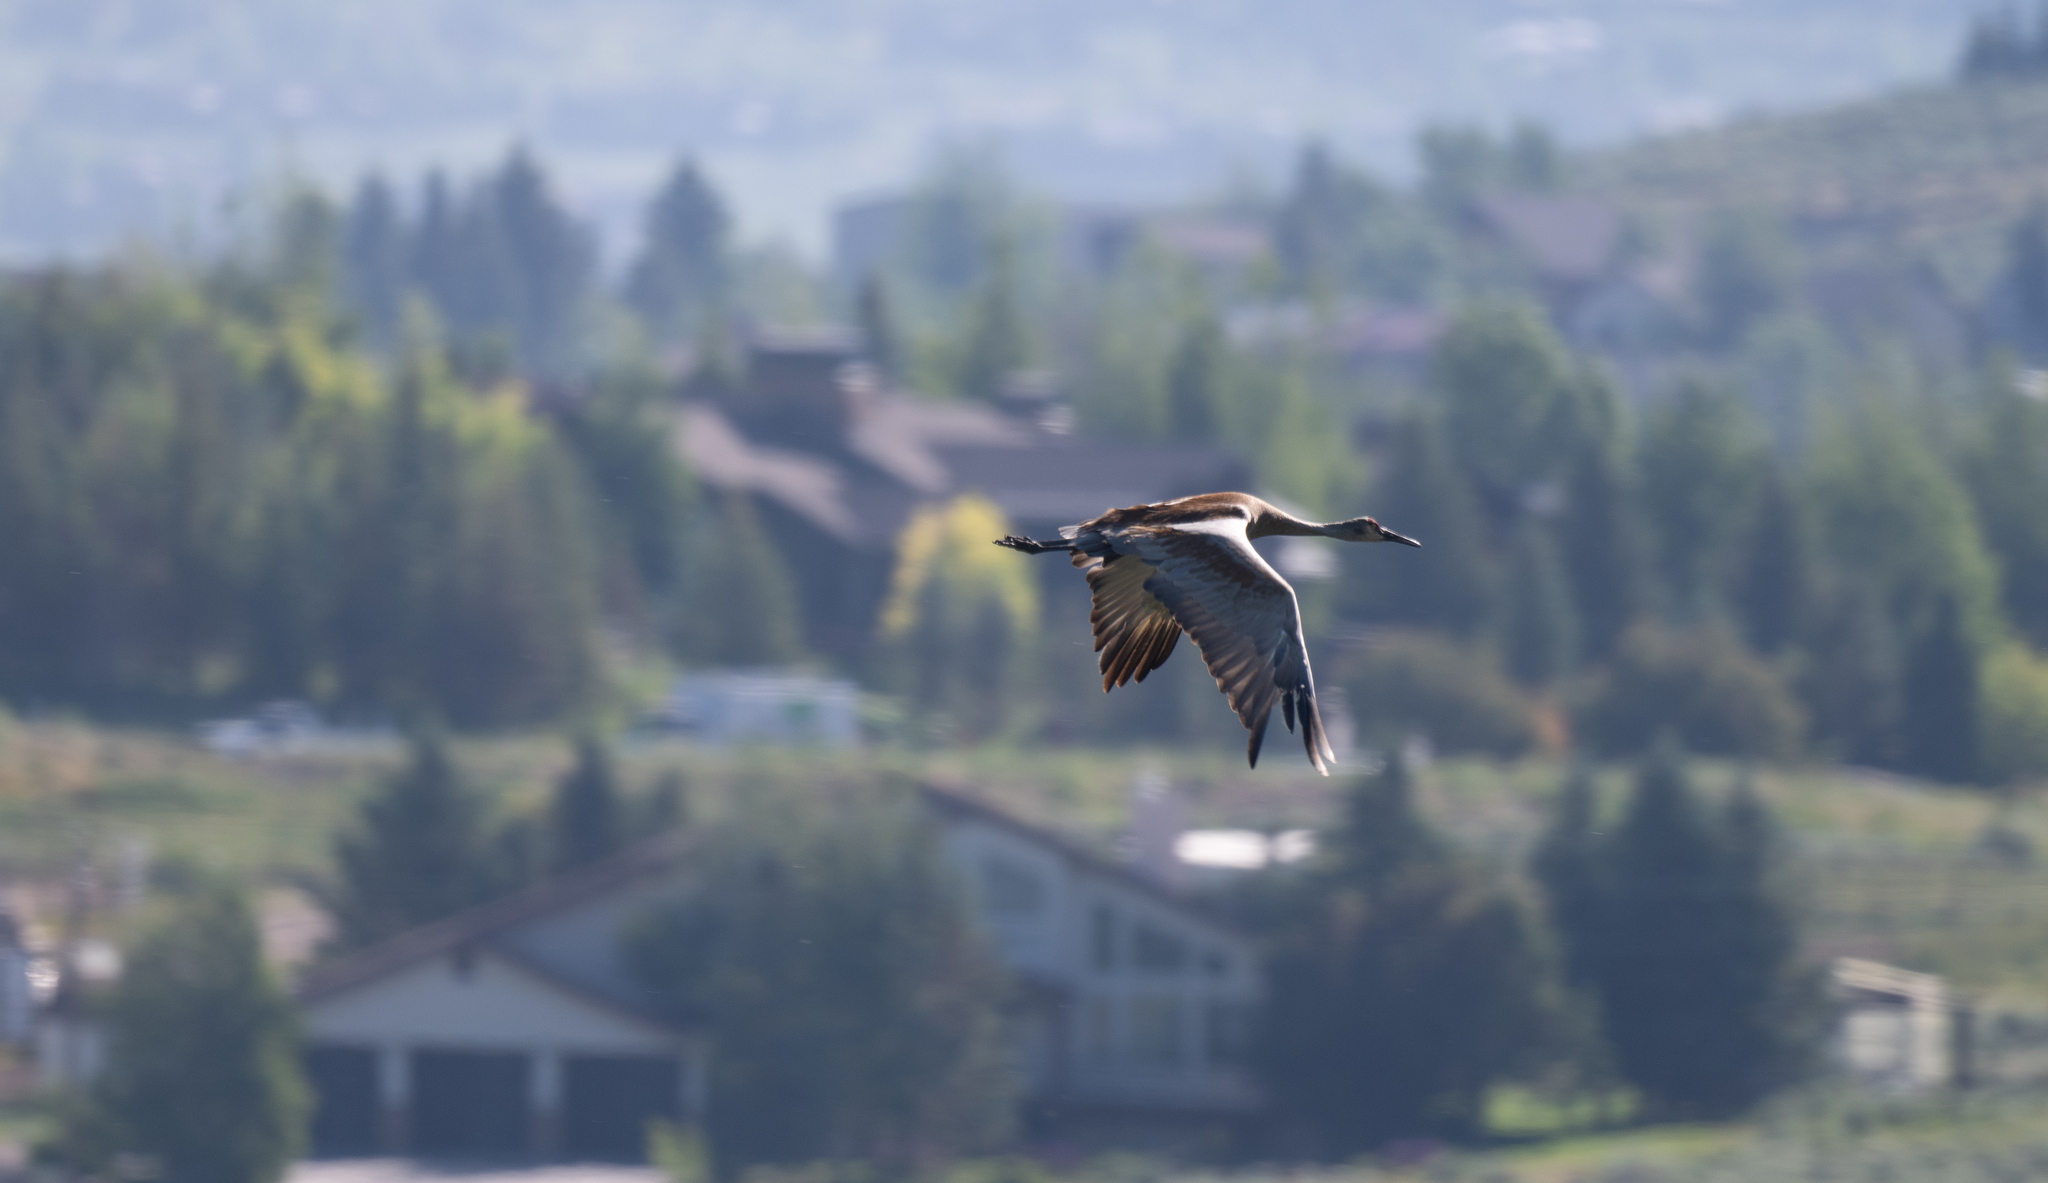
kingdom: Animalia
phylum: Chordata
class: Aves
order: Gruiformes
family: Gruidae
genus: Grus
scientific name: Grus canadensis
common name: Sandhill crane
